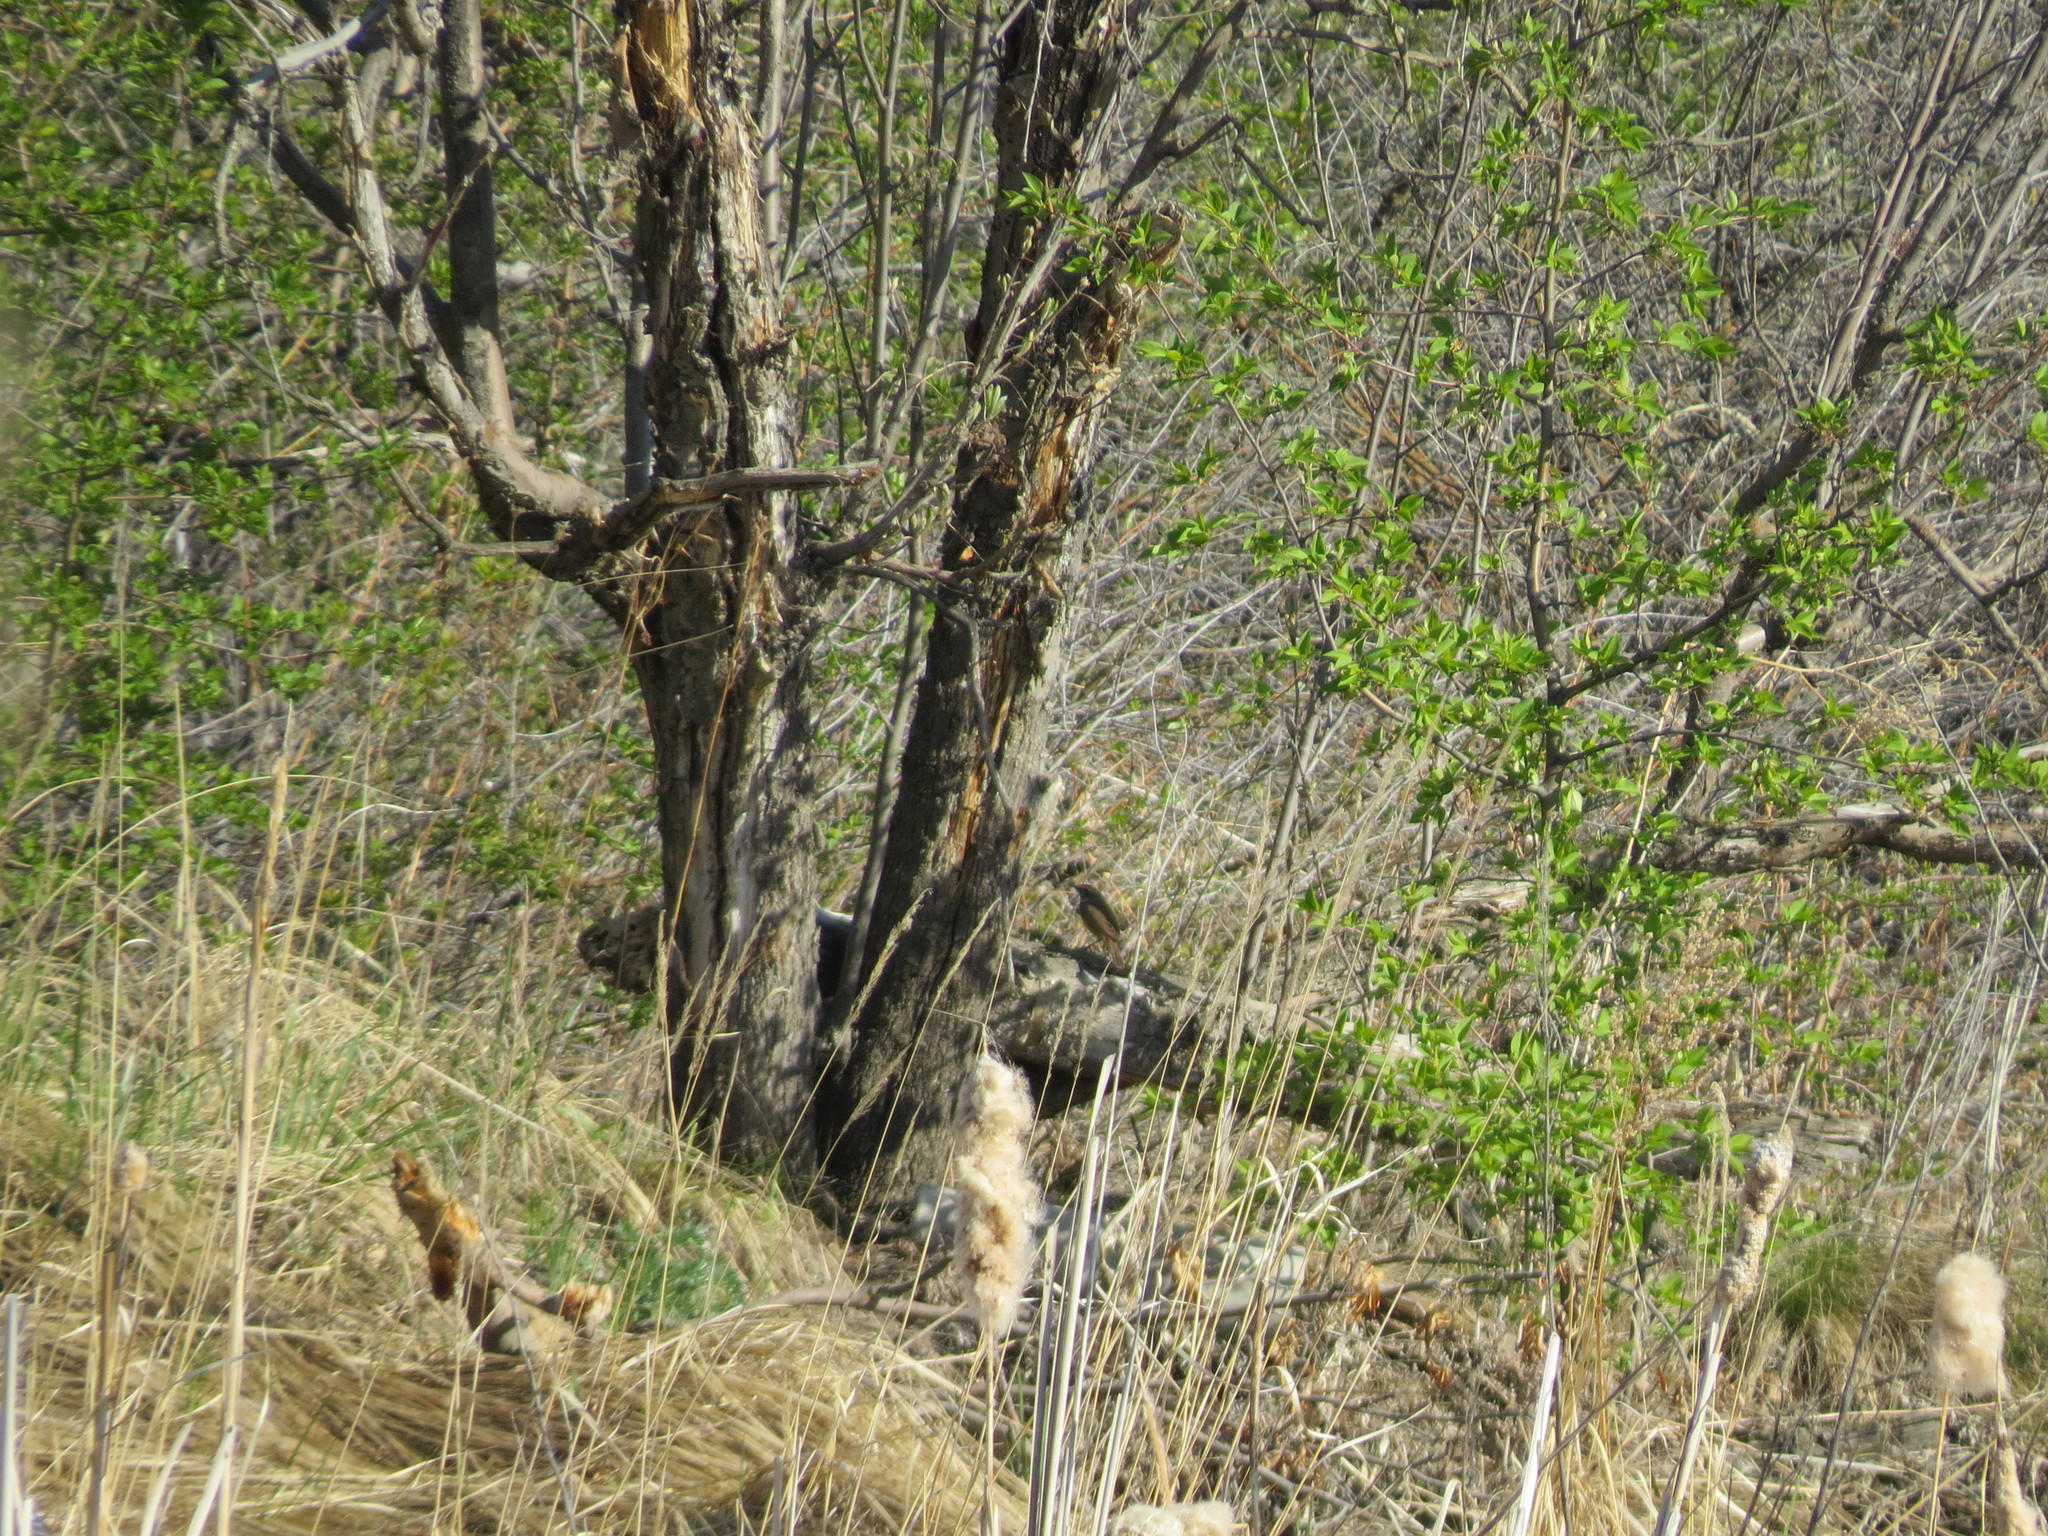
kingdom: Animalia
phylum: Chordata
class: Aves
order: Passeriformes
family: Muscicapidae
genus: Luscinia
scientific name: Luscinia svecica
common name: Bluethroat
